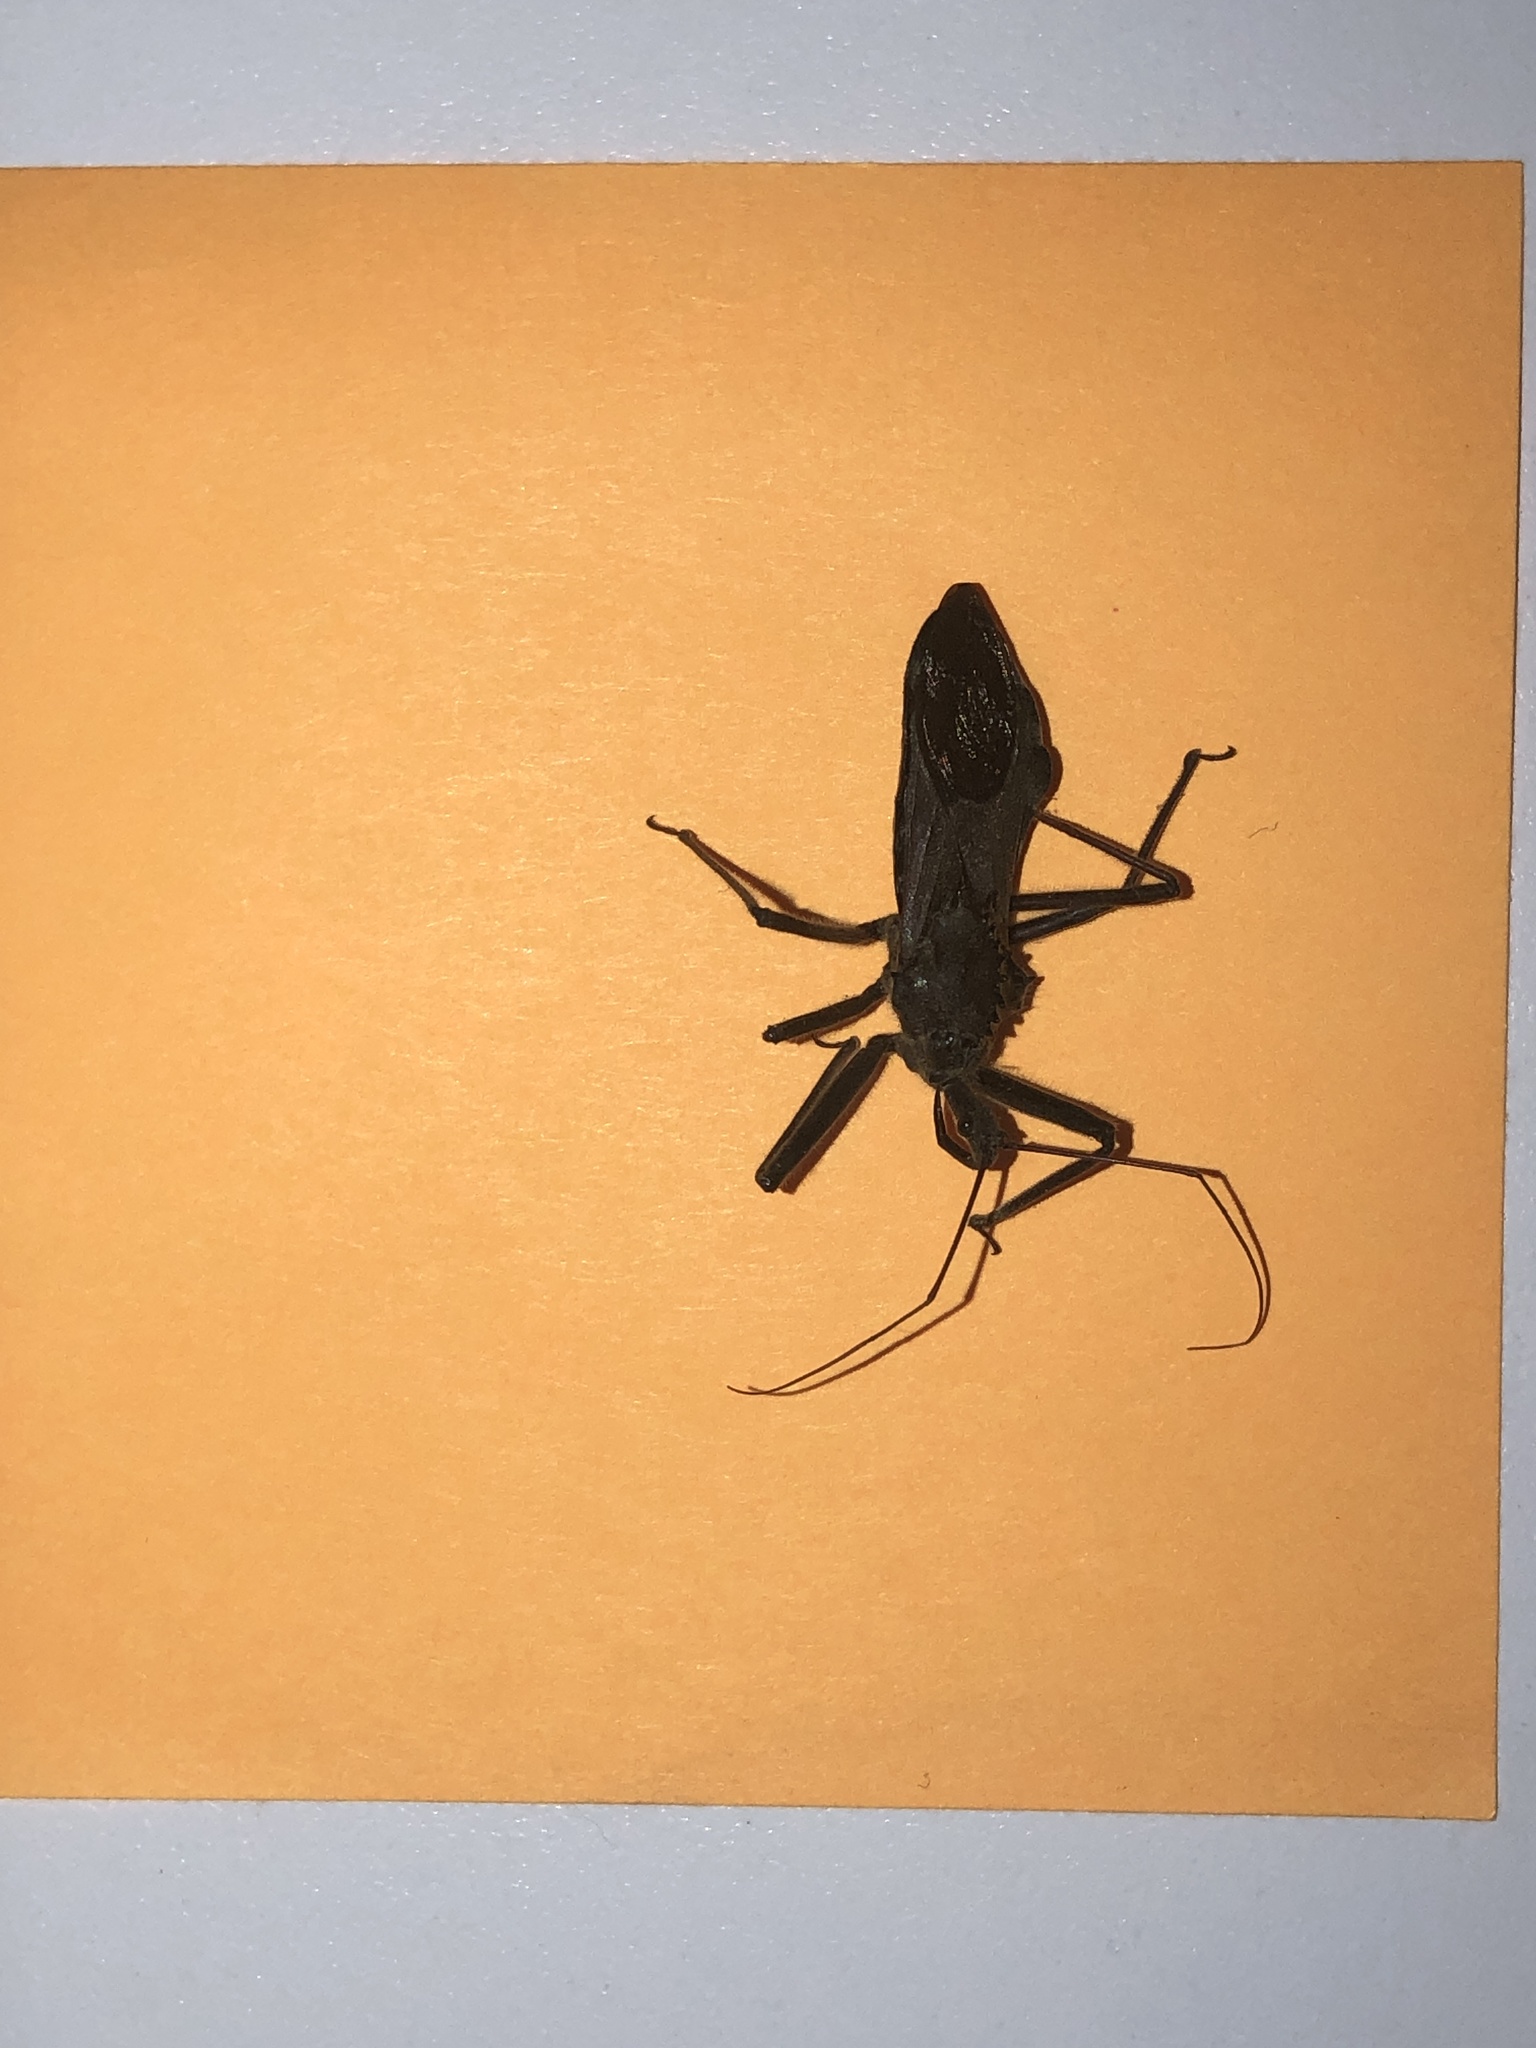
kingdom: Animalia
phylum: Arthropoda
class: Insecta
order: Hemiptera
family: Reduviidae
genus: Arilus
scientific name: Arilus cristatus
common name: North american wheel bug
